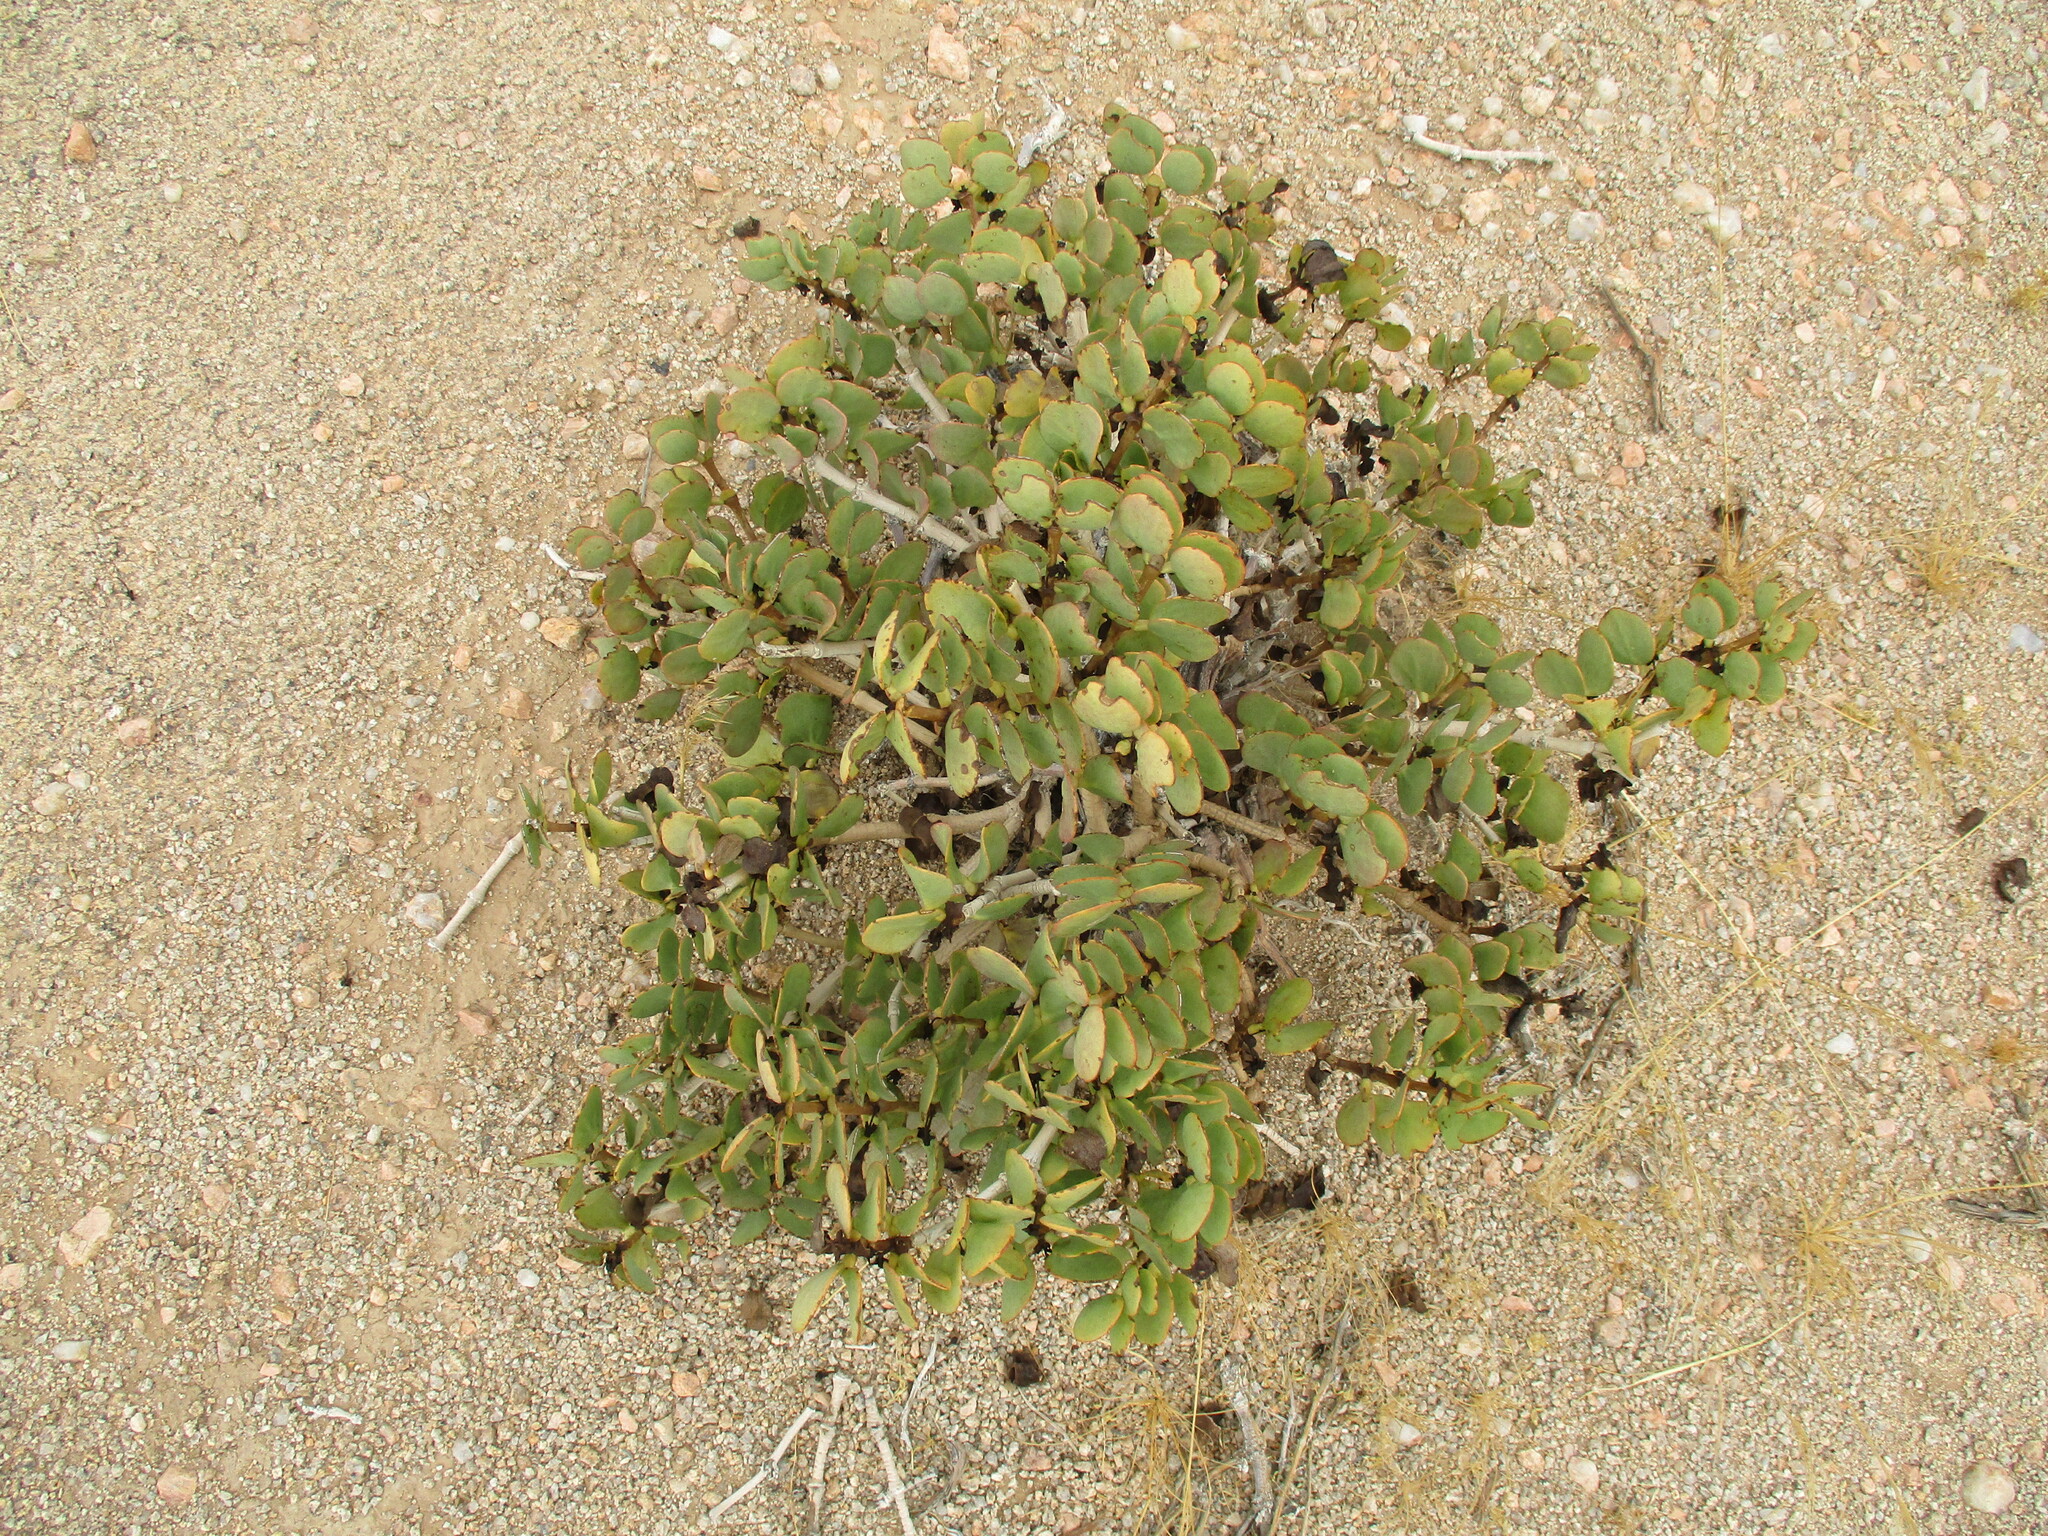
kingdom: Plantae
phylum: Tracheophyta
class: Magnoliopsida
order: Zygophyllales
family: Zygophyllaceae
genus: Tetraena
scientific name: Tetraena stapfii
